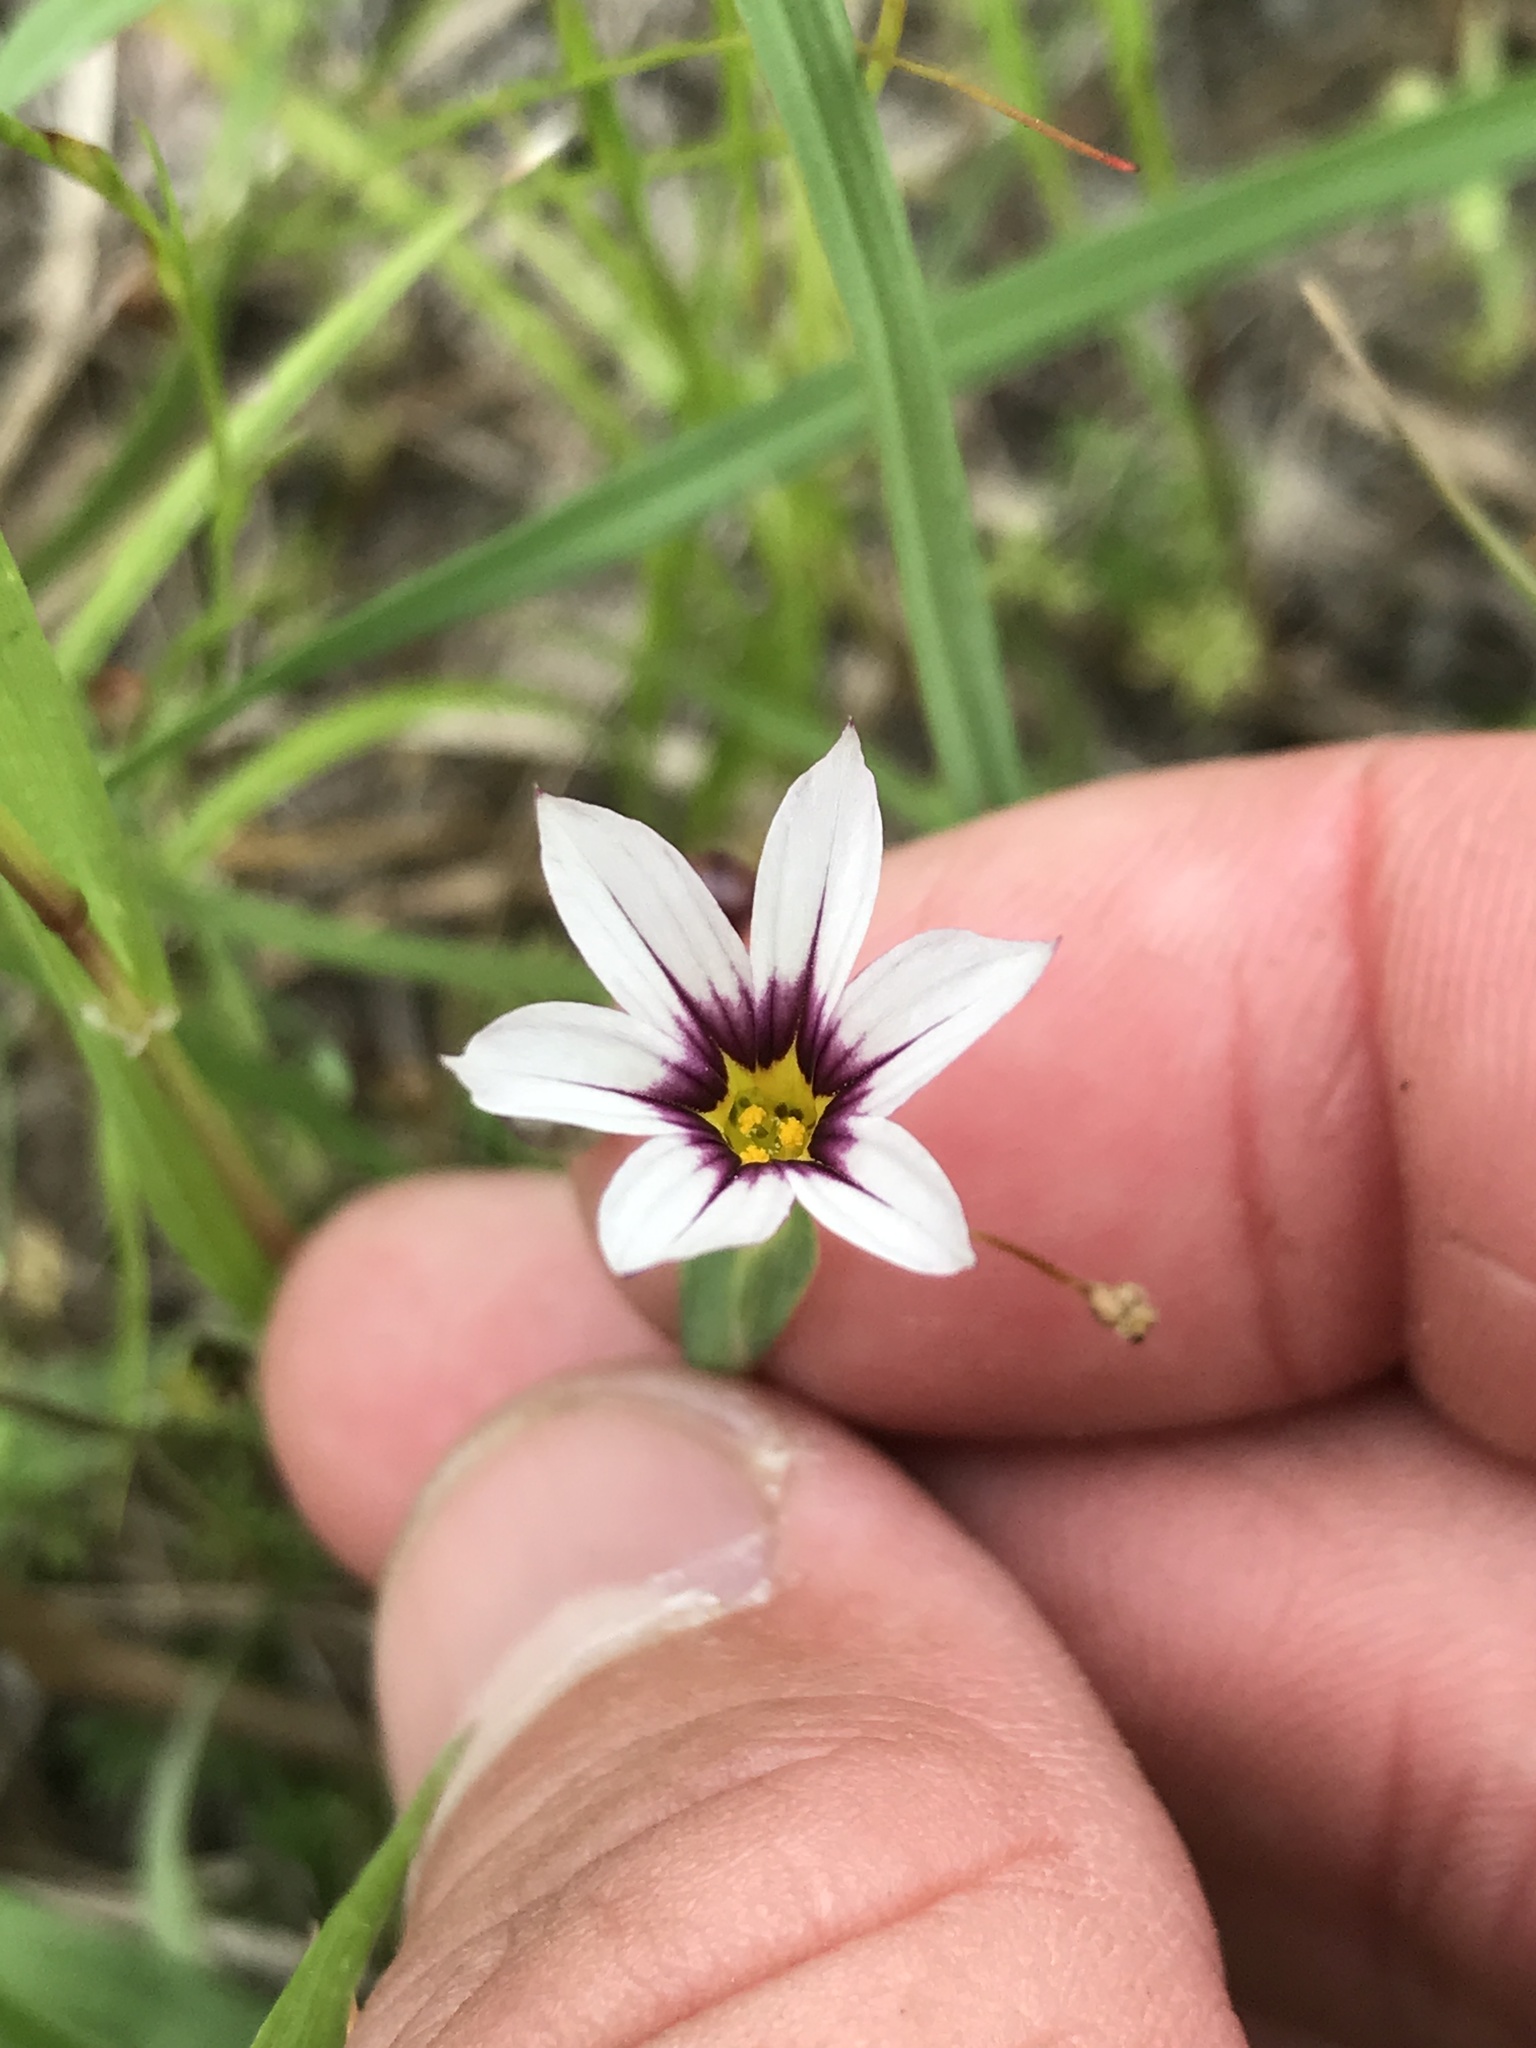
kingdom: Plantae
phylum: Tracheophyta
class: Liliopsida
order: Asparagales
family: Iridaceae
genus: Sisyrinchium
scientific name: Sisyrinchium micranthum
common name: Bermuda pigroot
